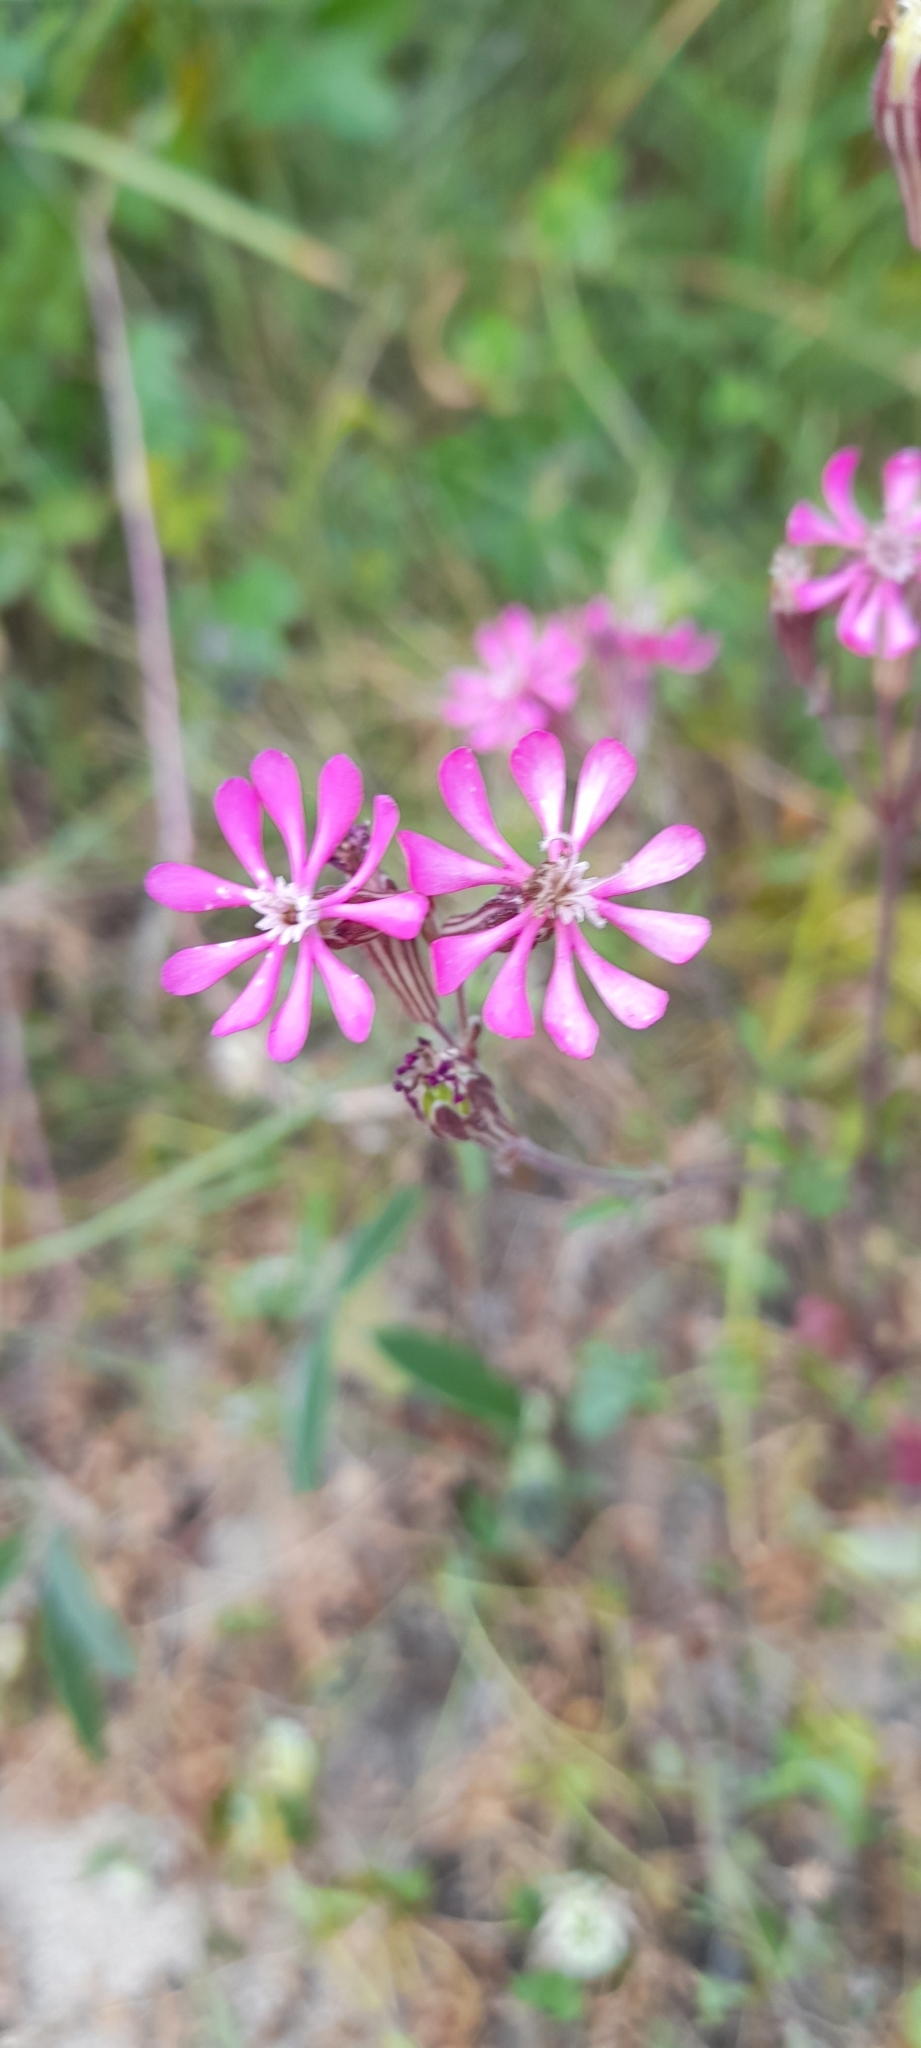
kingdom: Plantae
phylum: Tracheophyta
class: Magnoliopsida
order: Caryophyllales
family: Caryophyllaceae
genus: Silene
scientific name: Silene colorata
